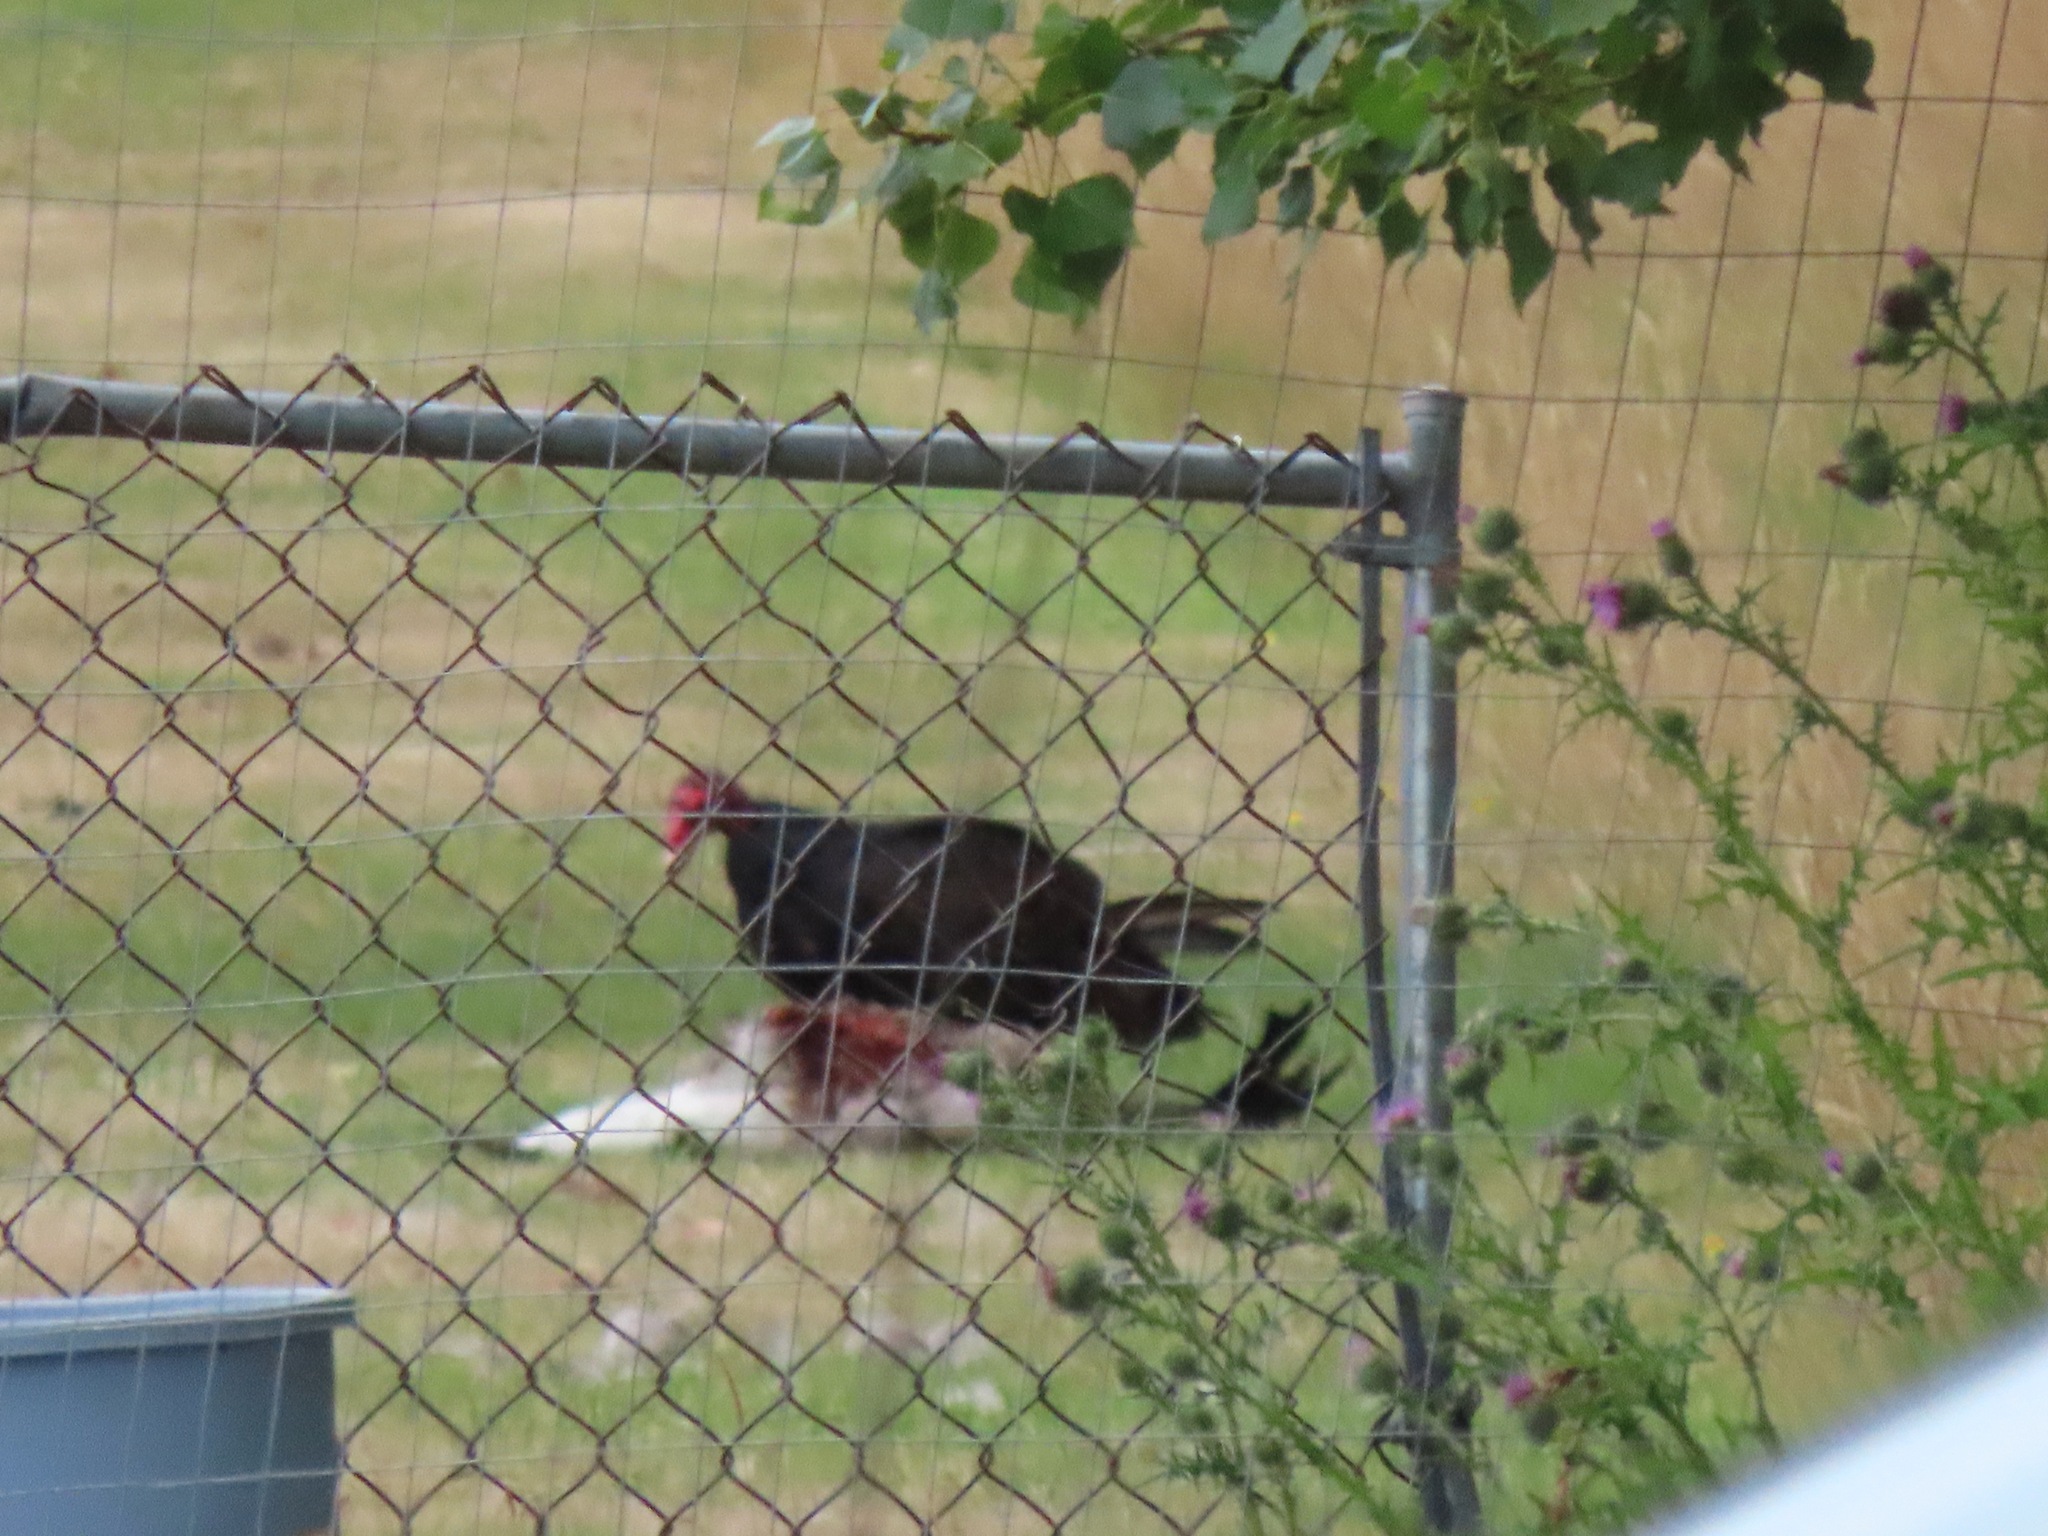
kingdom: Animalia
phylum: Chordata
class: Aves
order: Accipitriformes
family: Cathartidae
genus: Cathartes
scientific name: Cathartes aura
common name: Turkey vulture
